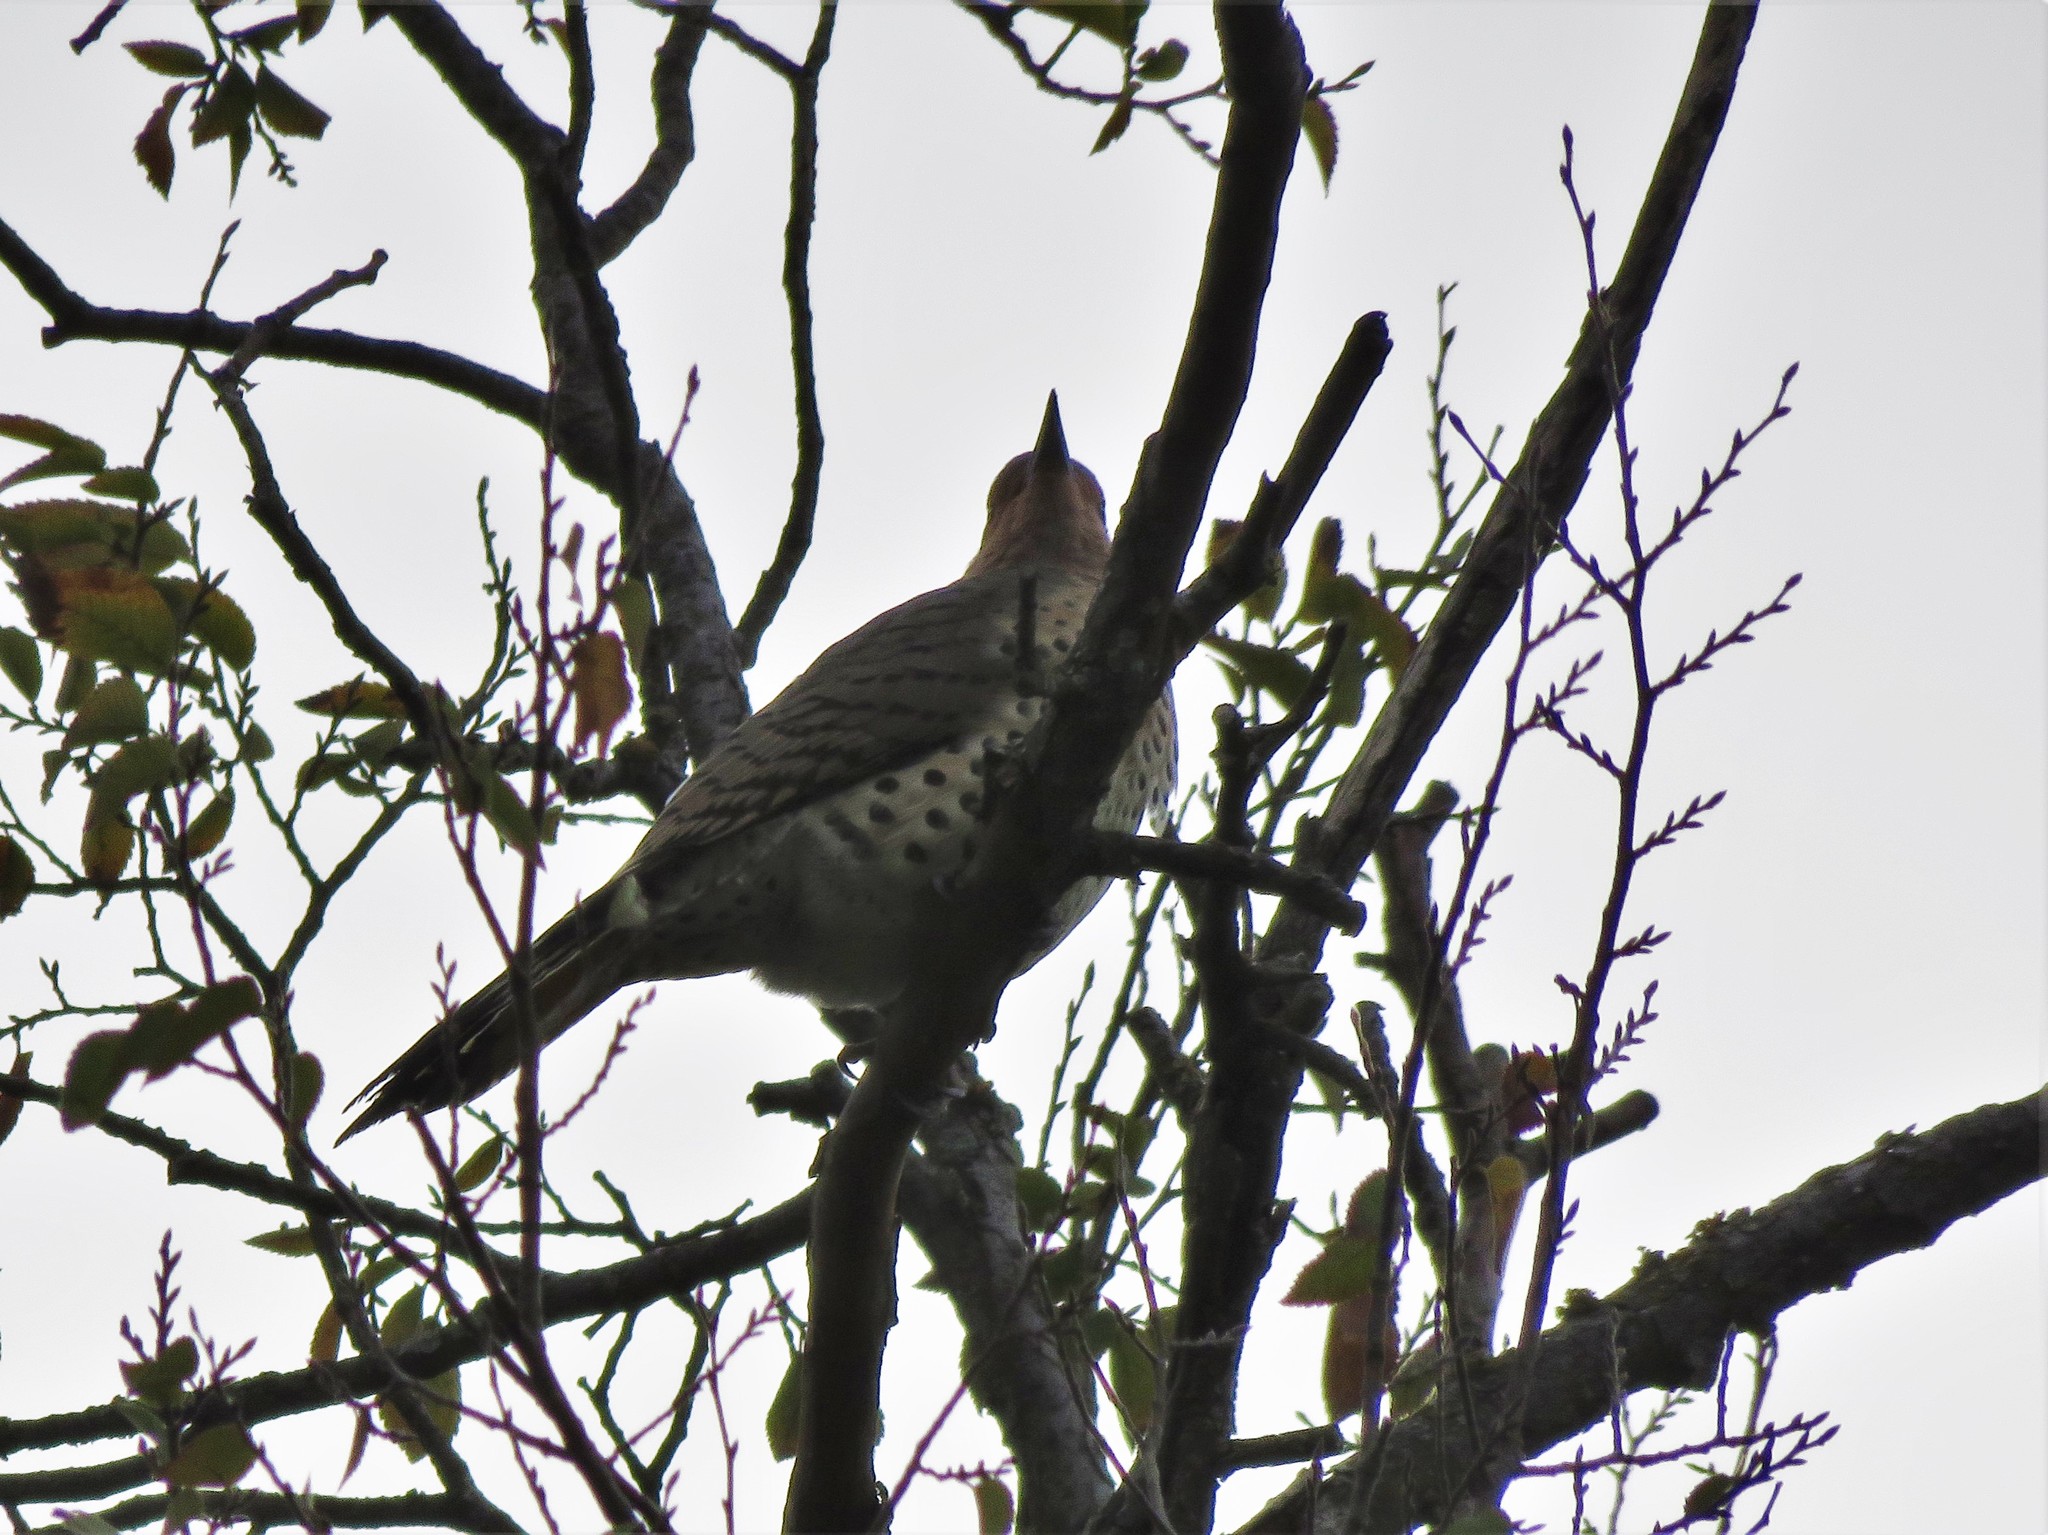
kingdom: Animalia
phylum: Chordata
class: Aves
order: Piciformes
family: Picidae
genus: Colaptes
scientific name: Colaptes auratus
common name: Northern flicker
